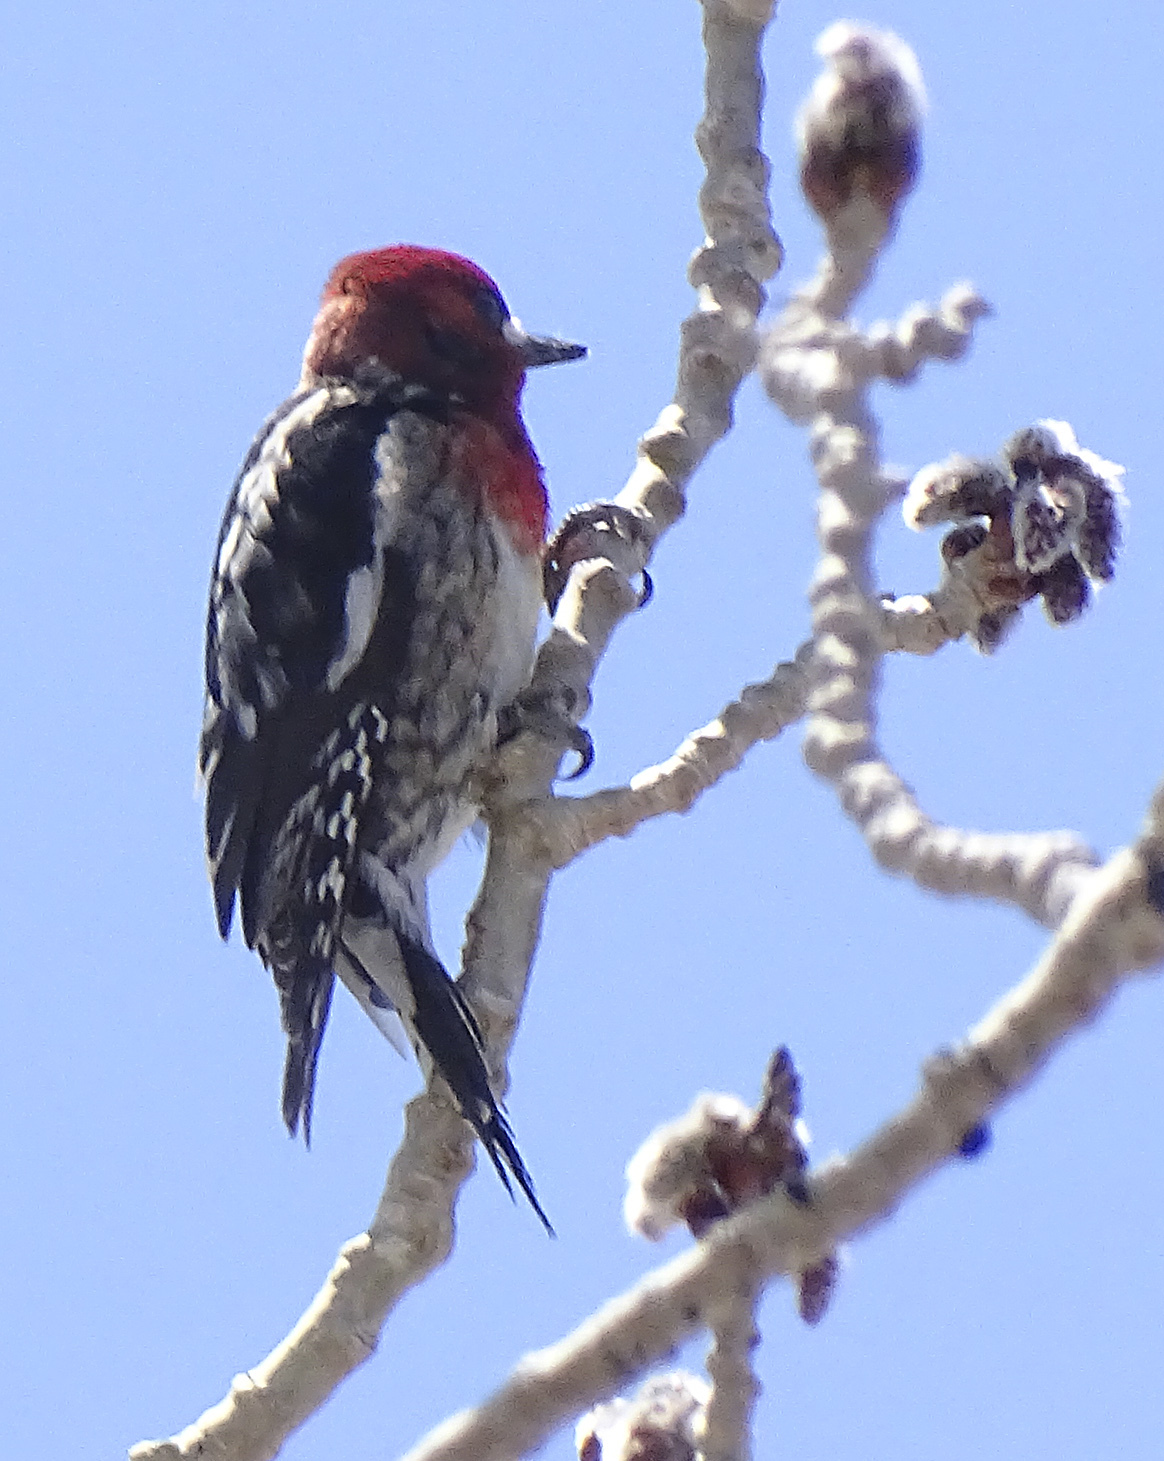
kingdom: Animalia
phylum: Chordata
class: Aves
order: Piciformes
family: Picidae
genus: Sphyrapicus
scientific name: Sphyrapicus ruber
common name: Red-breasted sapsucker
